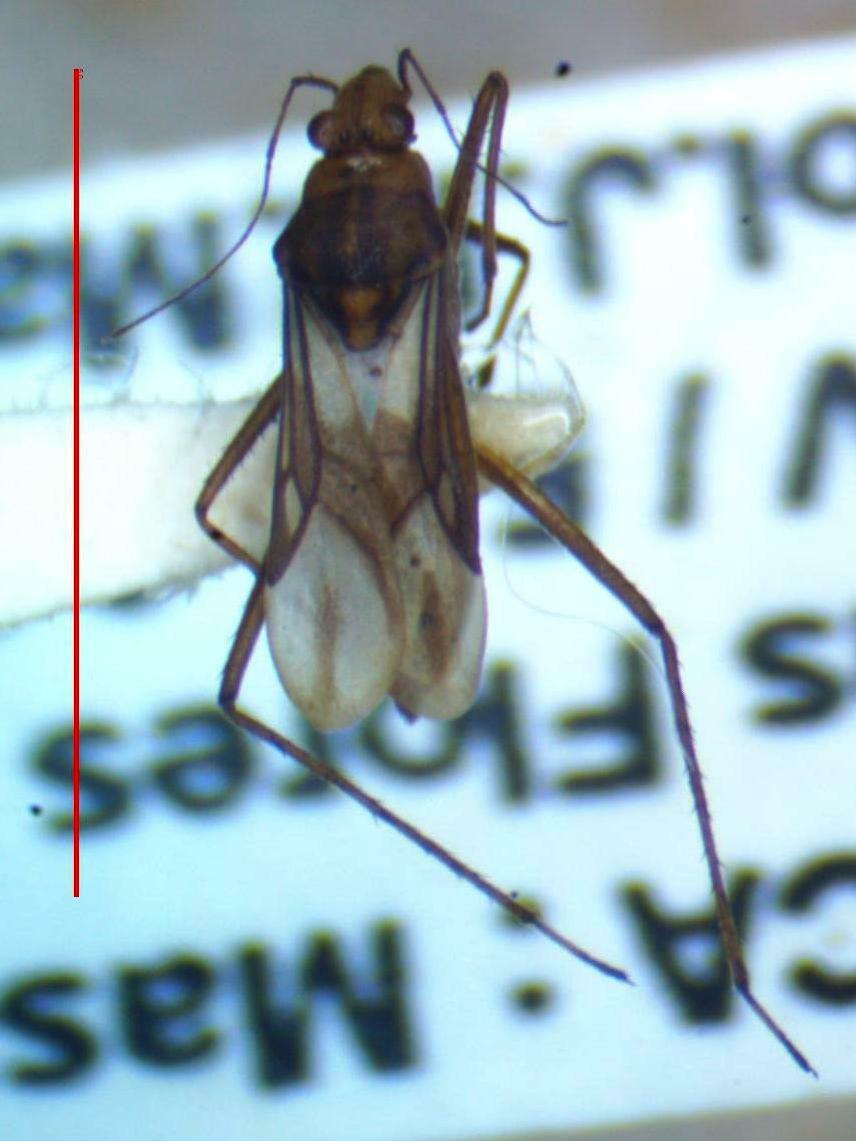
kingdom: Animalia
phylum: Arthropoda
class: Insecta
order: Hemiptera
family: Mesoveliidae
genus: Mesovelia
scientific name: Mesovelia mulsanti
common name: Water treaders
